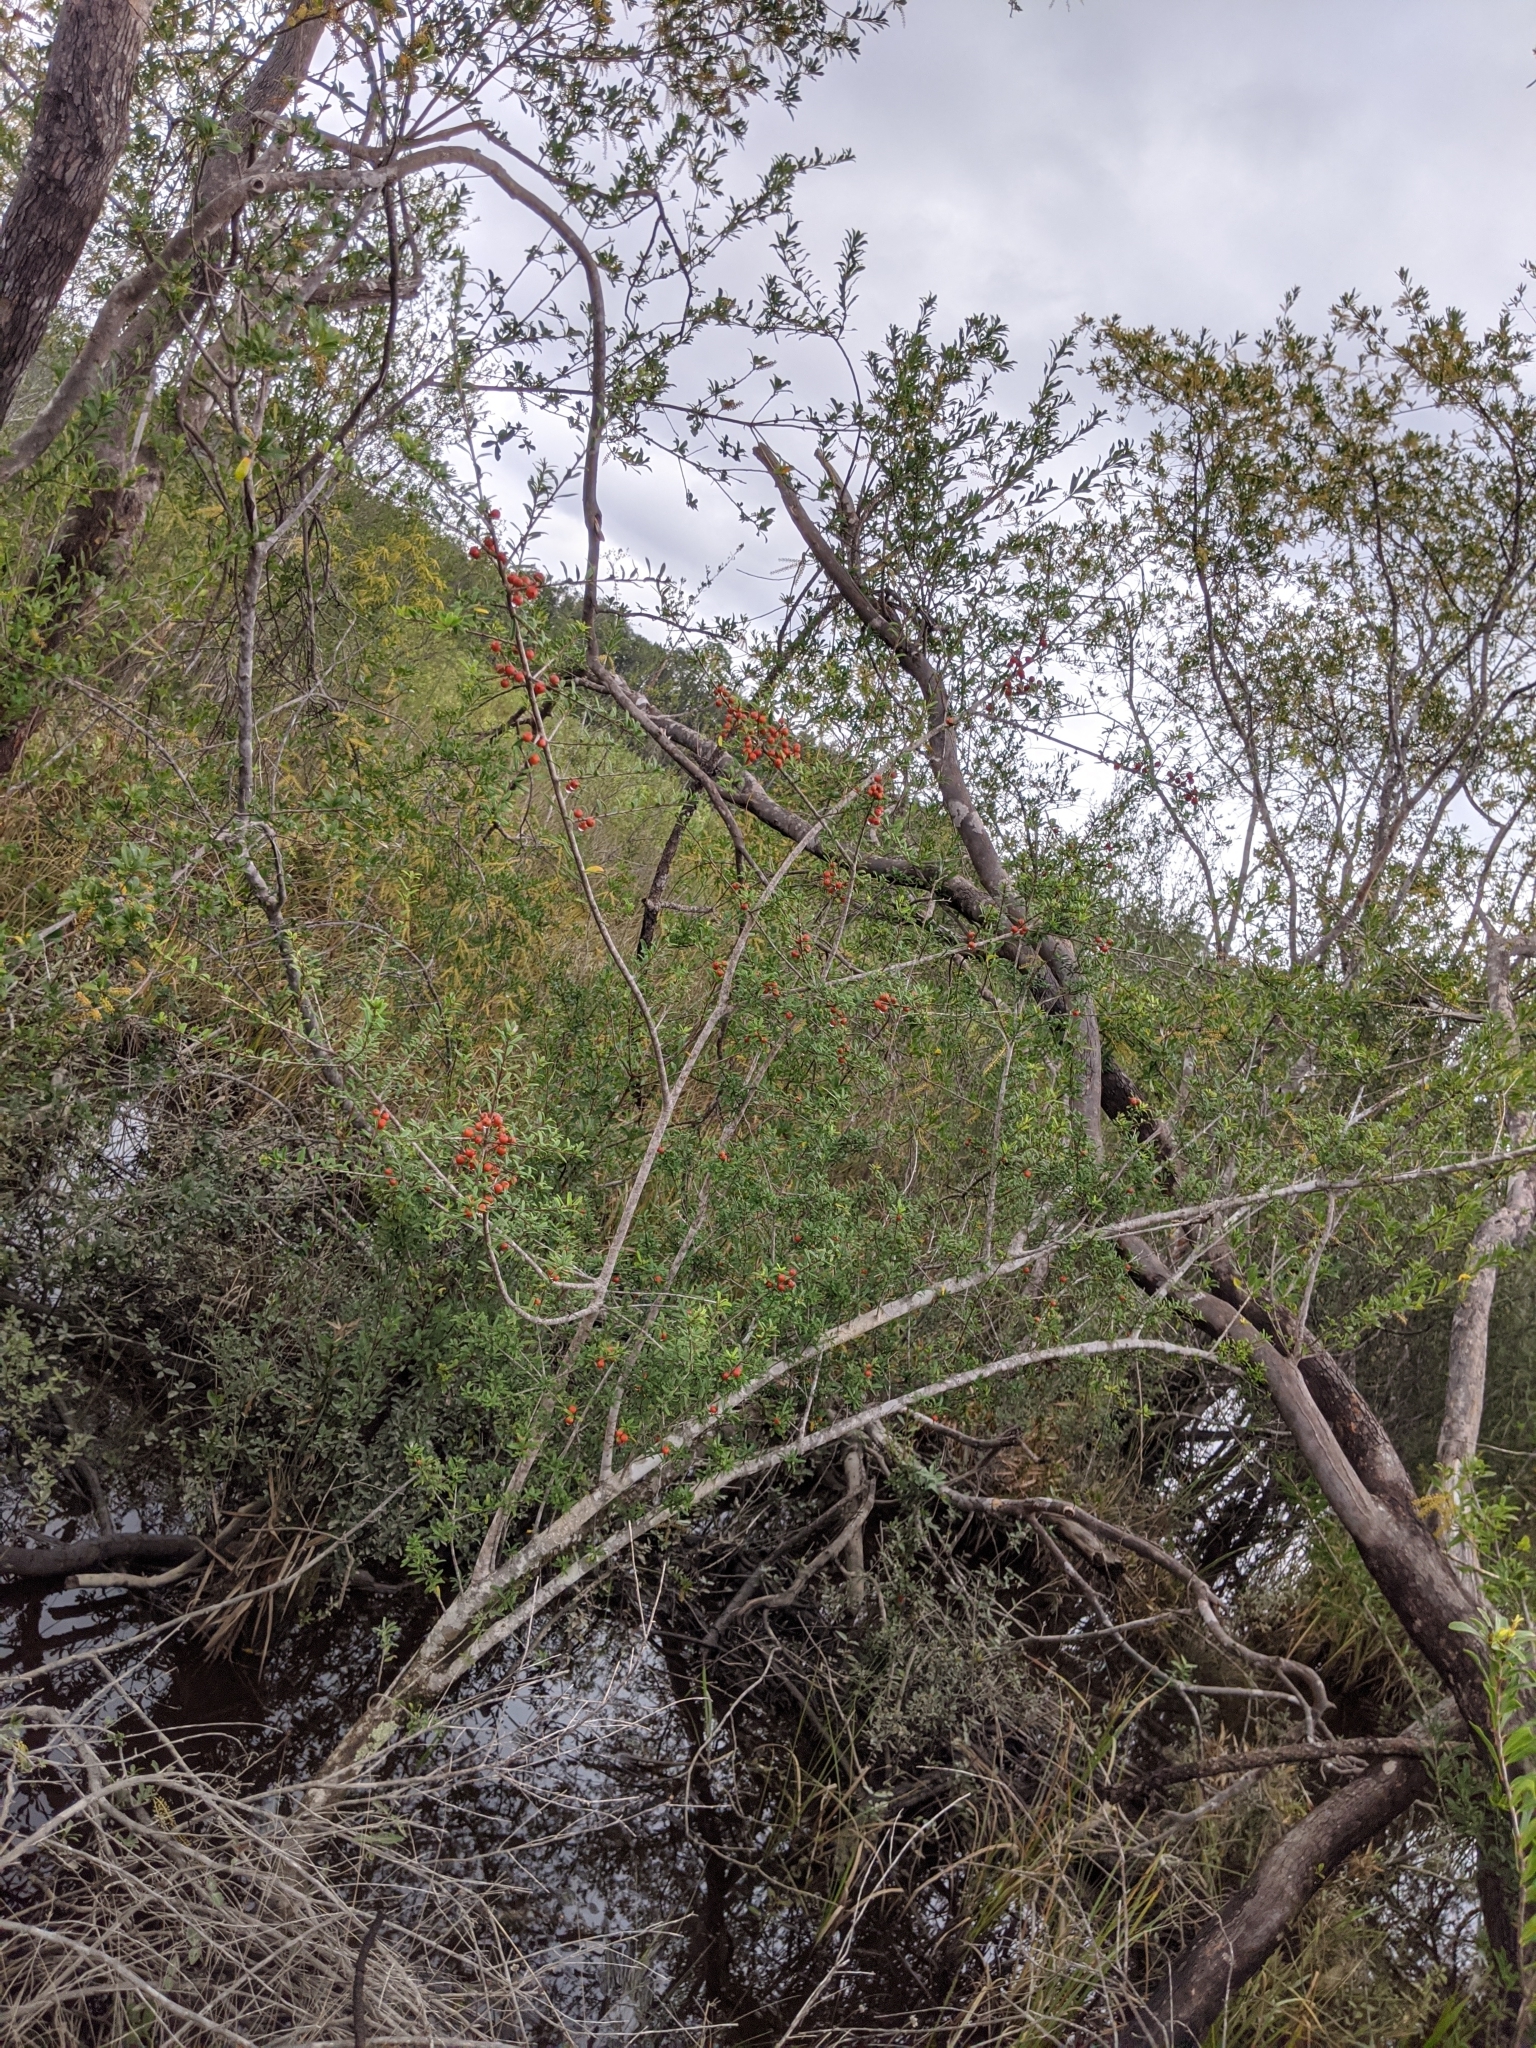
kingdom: Plantae
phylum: Tracheophyta
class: Magnoliopsida
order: Aquifoliales
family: Aquifoliaceae
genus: Ilex
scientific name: Ilex myrtifolia
